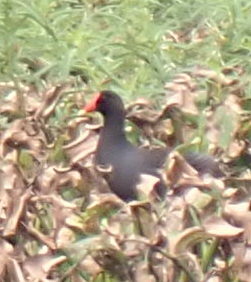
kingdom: Animalia
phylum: Chordata
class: Aves
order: Gruiformes
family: Rallidae
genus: Gallinula
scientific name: Gallinula chloropus
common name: Common moorhen
